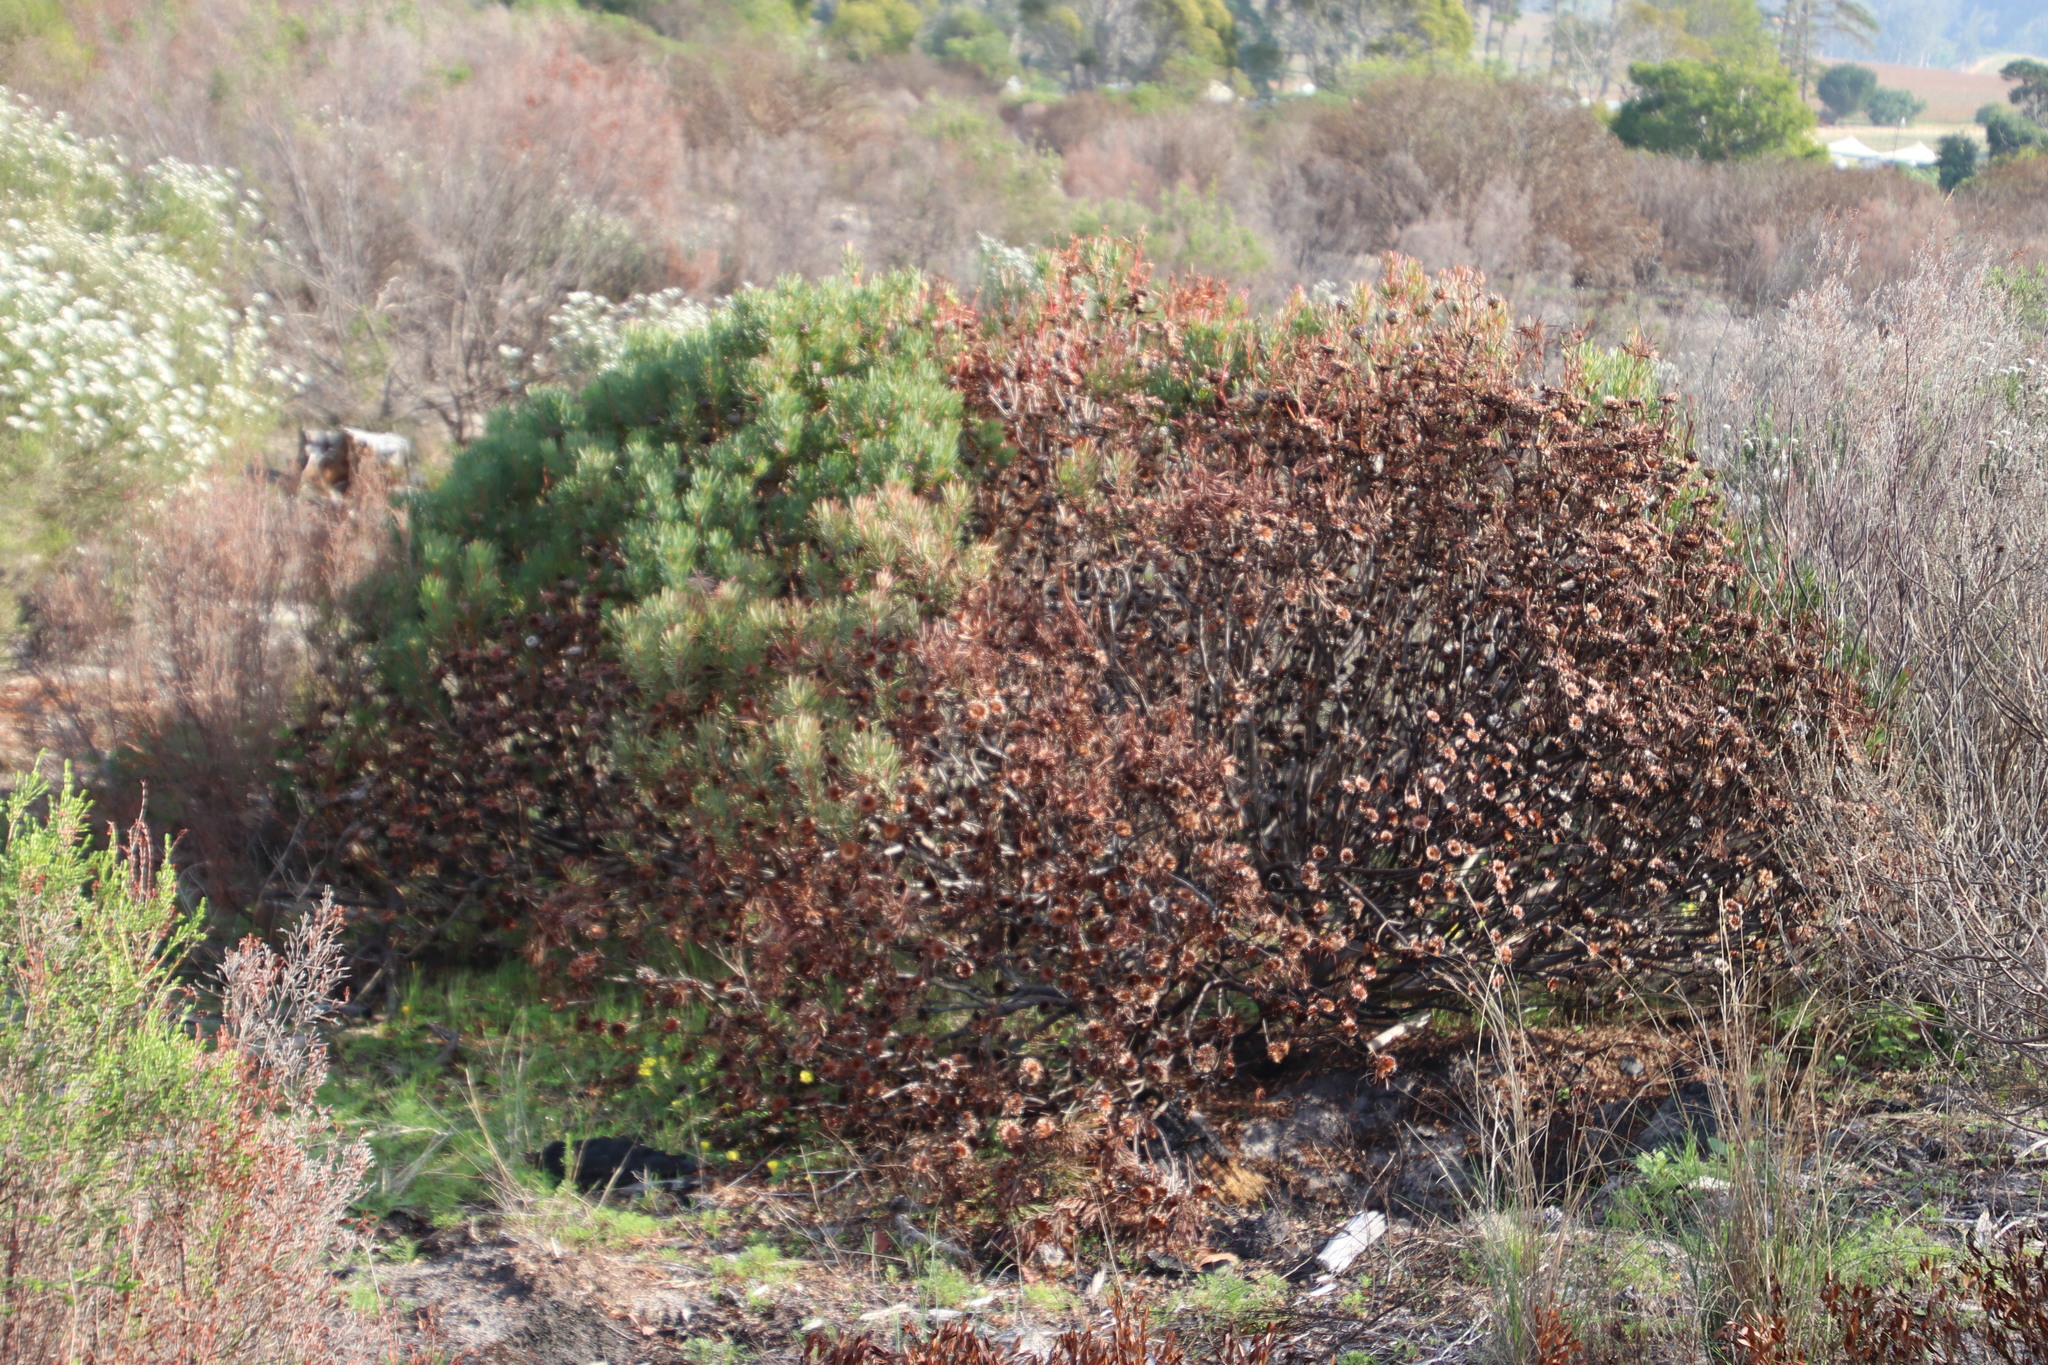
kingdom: Plantae
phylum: Tracheophyta
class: Magnoliopsida
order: Proteales
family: Proteaceae
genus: Protea
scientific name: Protea scolymocephala
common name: Thistle sugarbush
